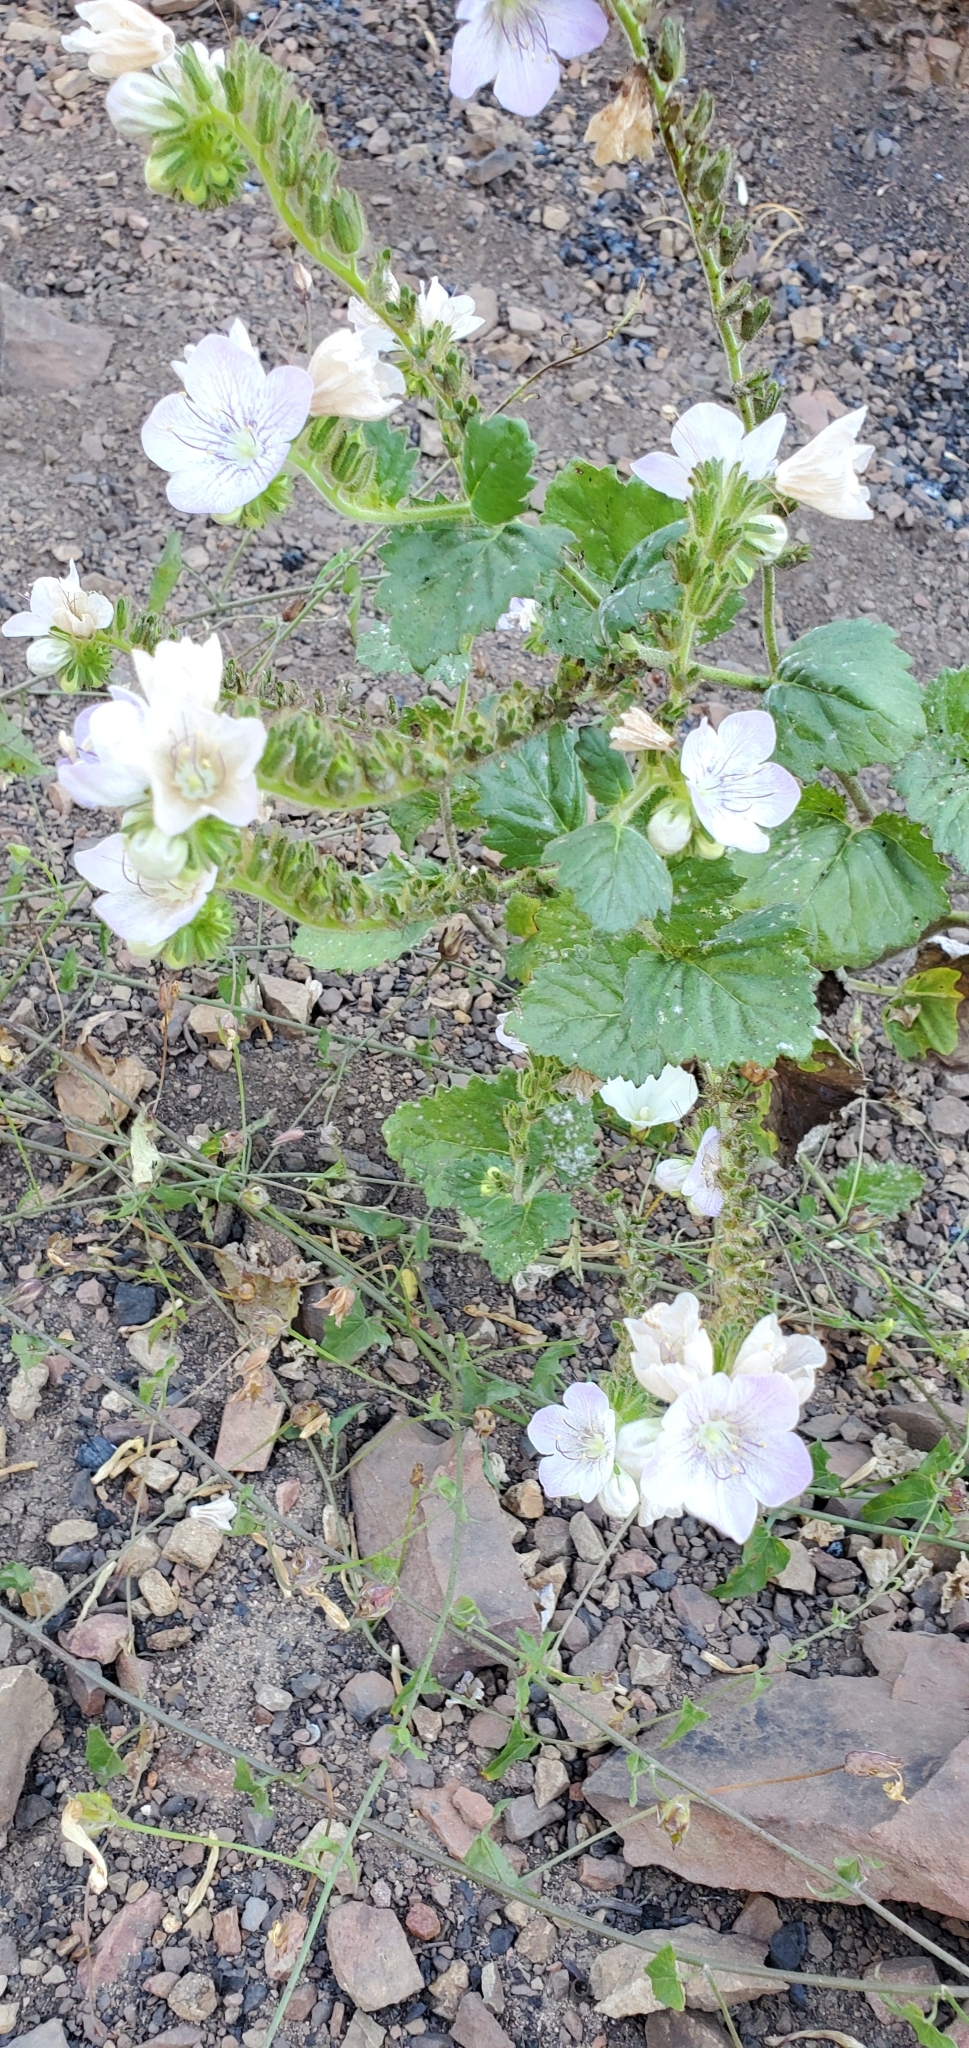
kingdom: Plantae
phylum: Tracheophyta
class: Magnoliopsida
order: Boraginales
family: Hydrophyllaceae
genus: Phacelia
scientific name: Phacelia grandiflora
